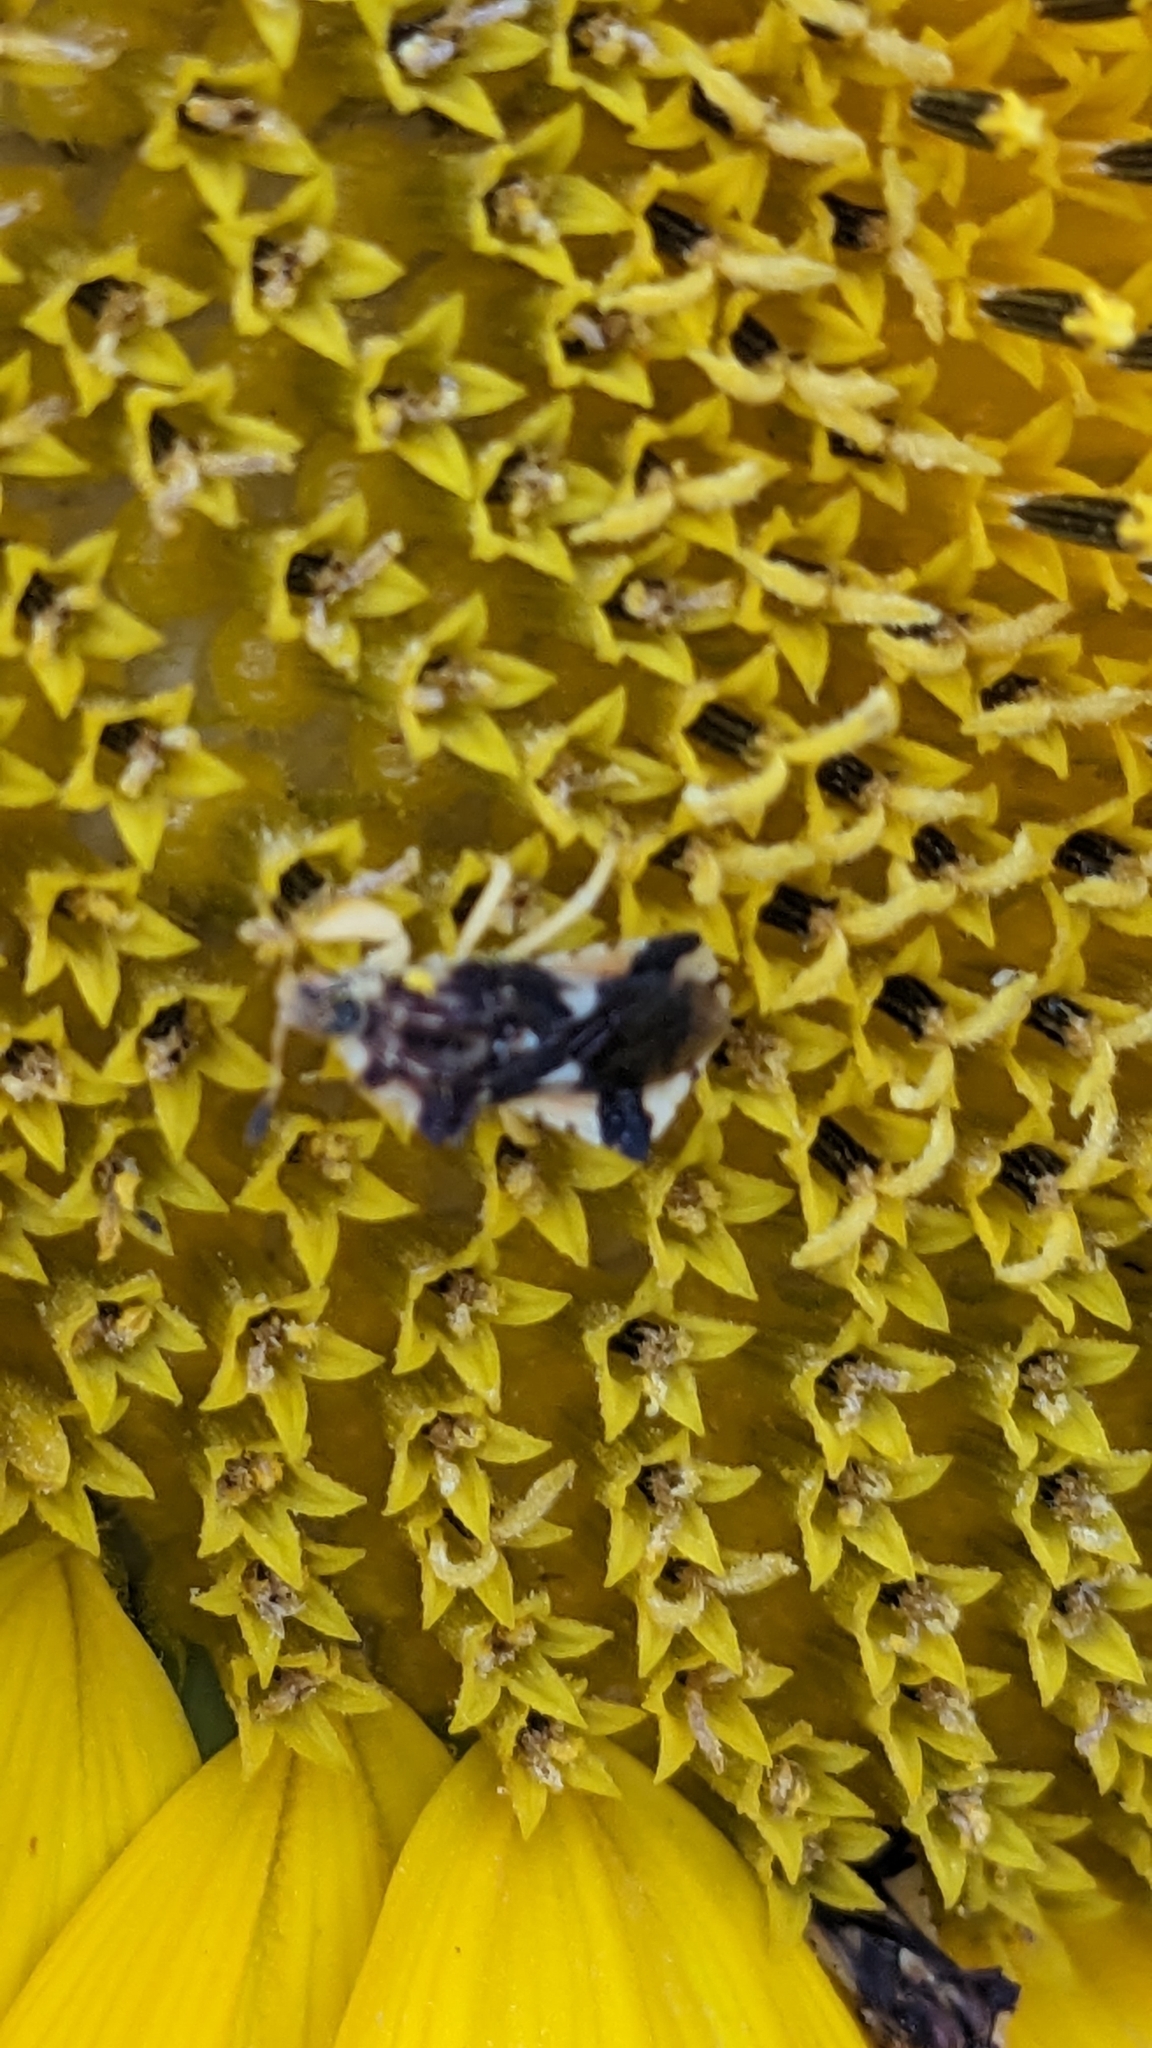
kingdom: Animalia
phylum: Arthropoda
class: Insecta
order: Hemiptera
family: Reduviidae
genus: Phymata
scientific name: Phymata americana
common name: Jagged ambush bug
